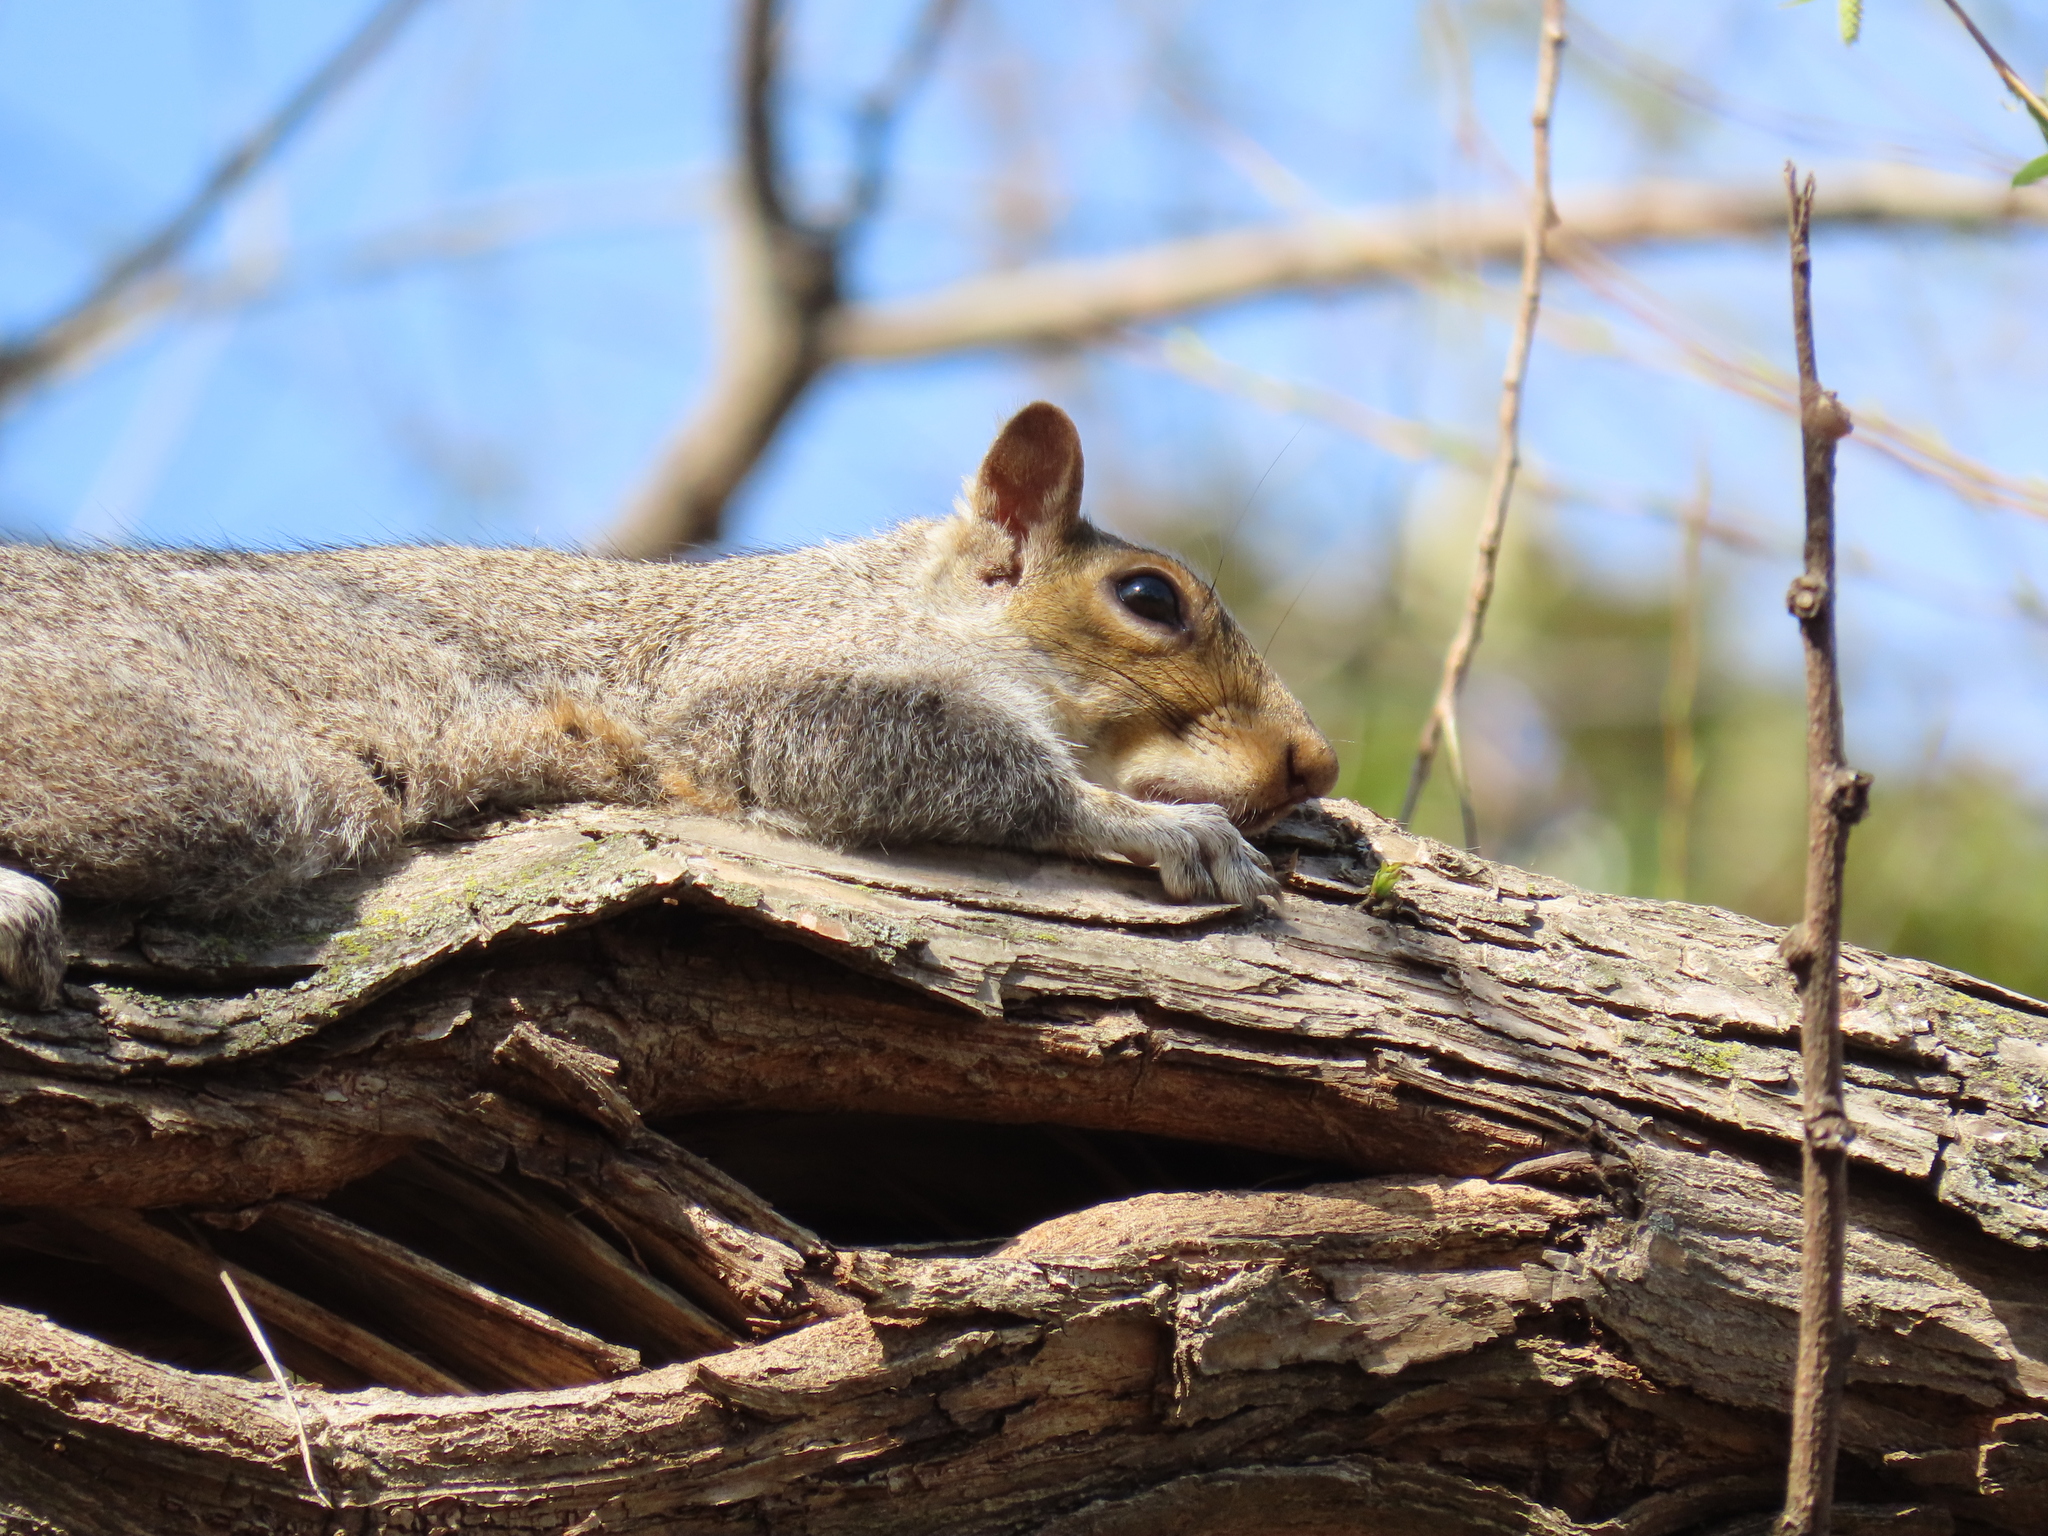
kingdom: Animalia
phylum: Chordata
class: Mammalia
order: Rodentia
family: Sciuridae
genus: Sciurus
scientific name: Sciurus carolinensis
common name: Eastern gray squirrel
